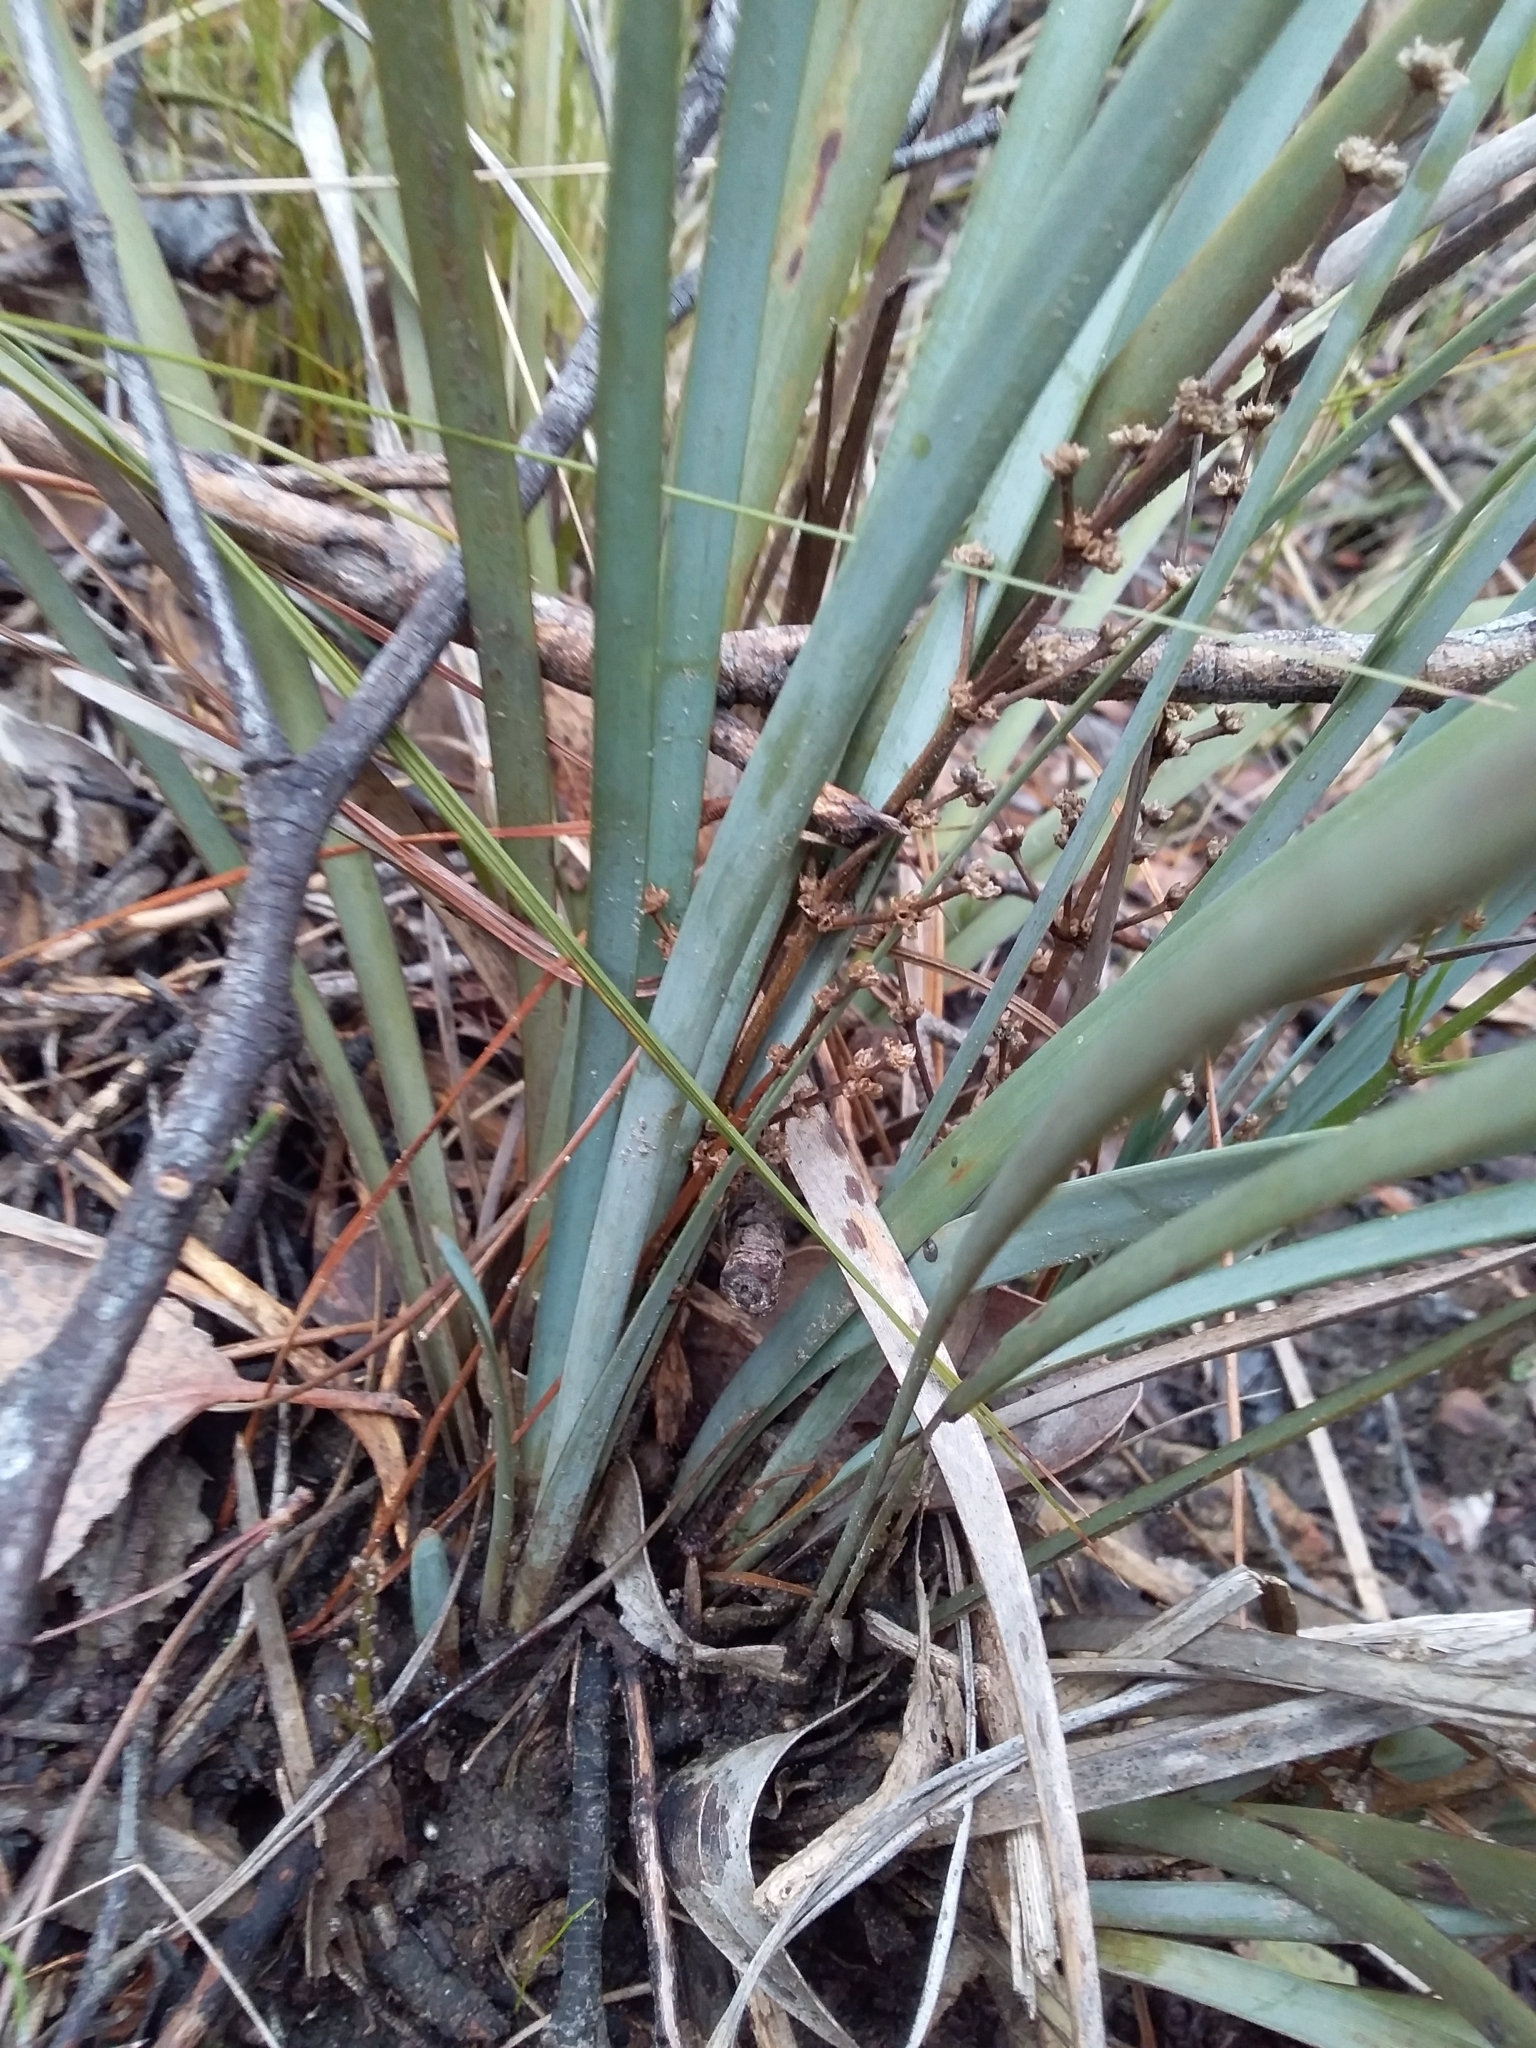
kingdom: Plantae
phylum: Tracheophyta
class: Liliopsida
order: Asparagales
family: Asparagaceae
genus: Lomandra
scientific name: Lomandra multiflora
